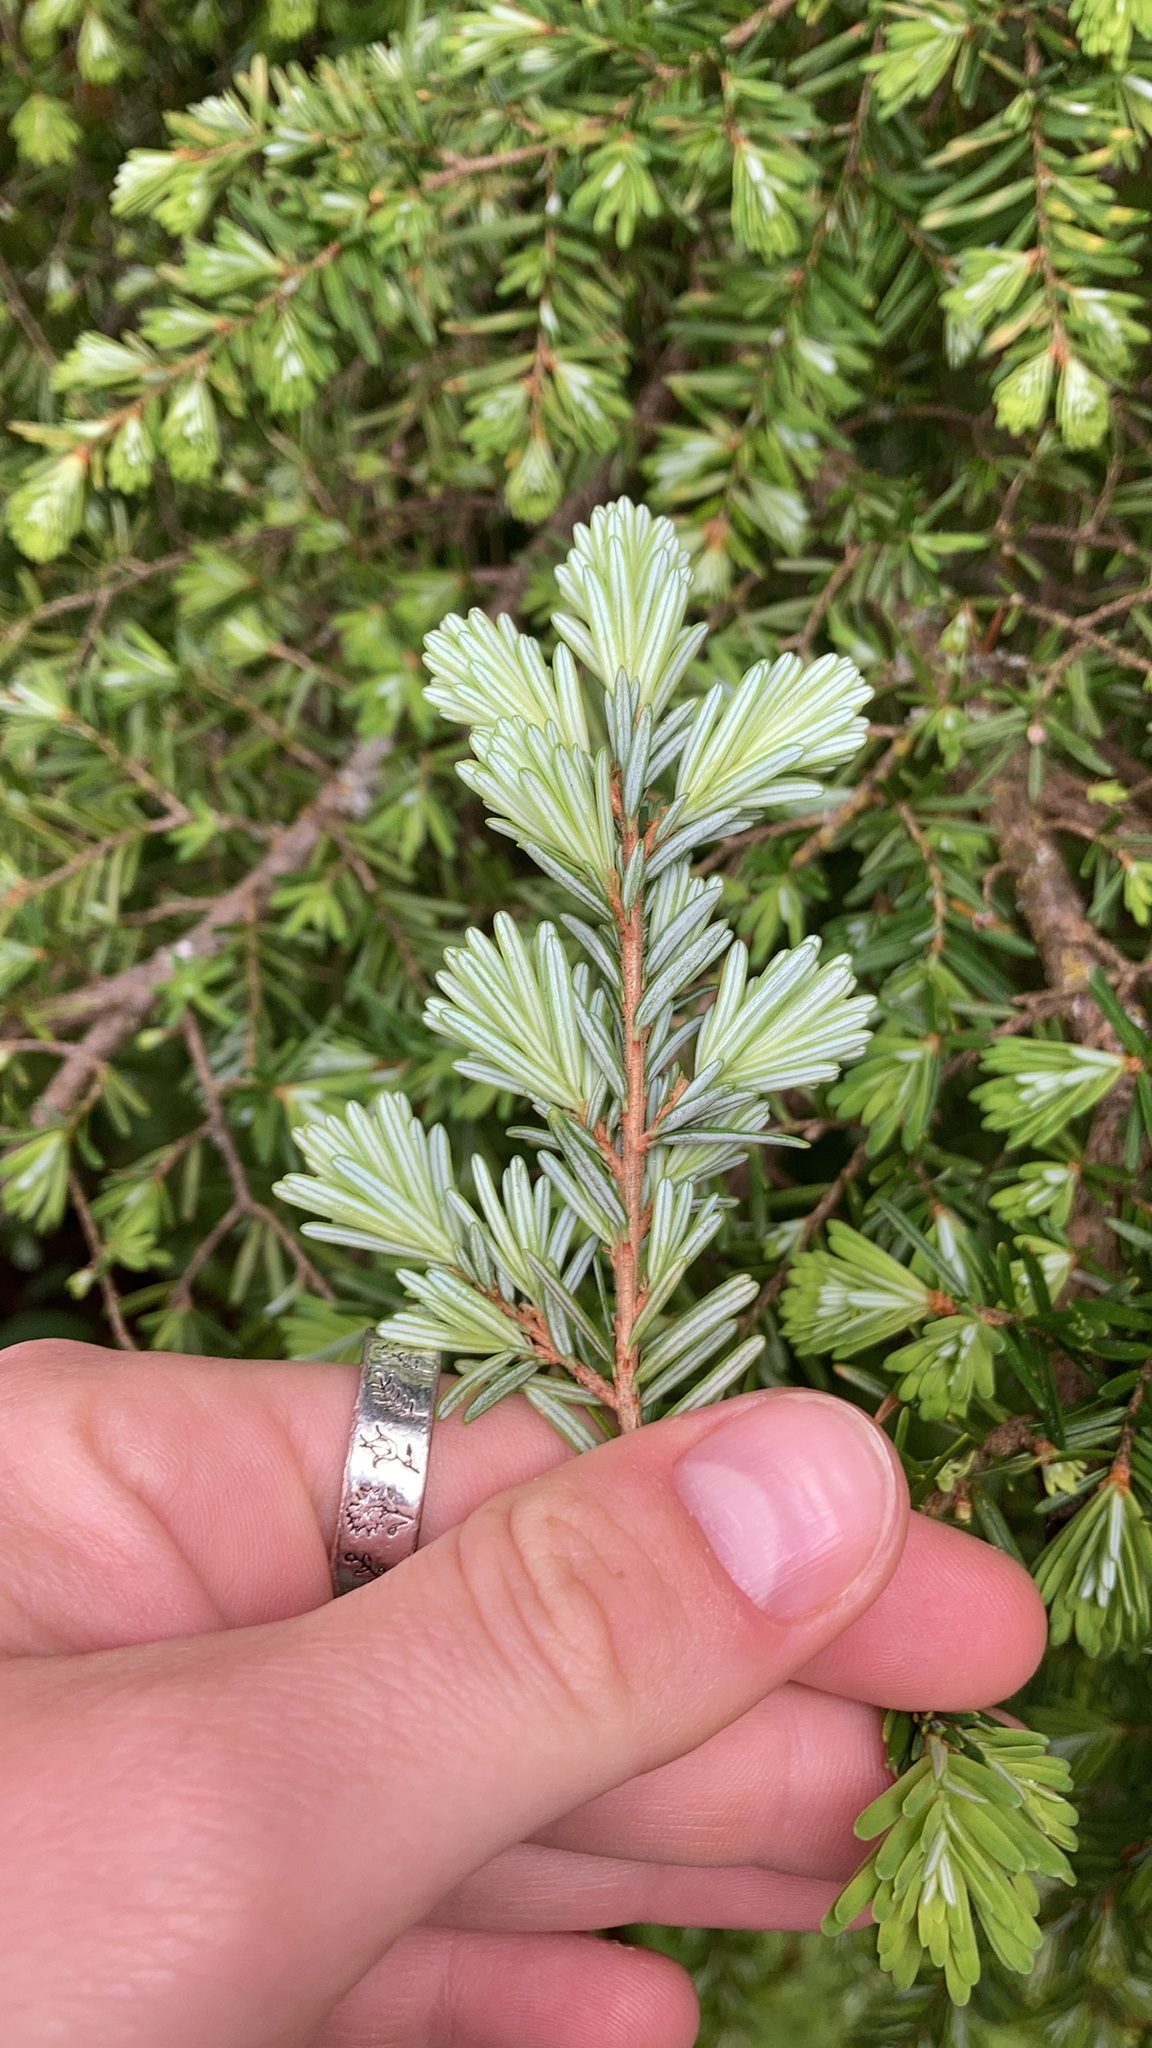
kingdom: Plantae
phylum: Tracheophyta
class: Pinopsida
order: Pinales
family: Pinaceae
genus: Tsuga
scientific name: Tsuga heterophylla
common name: Western hemlock
